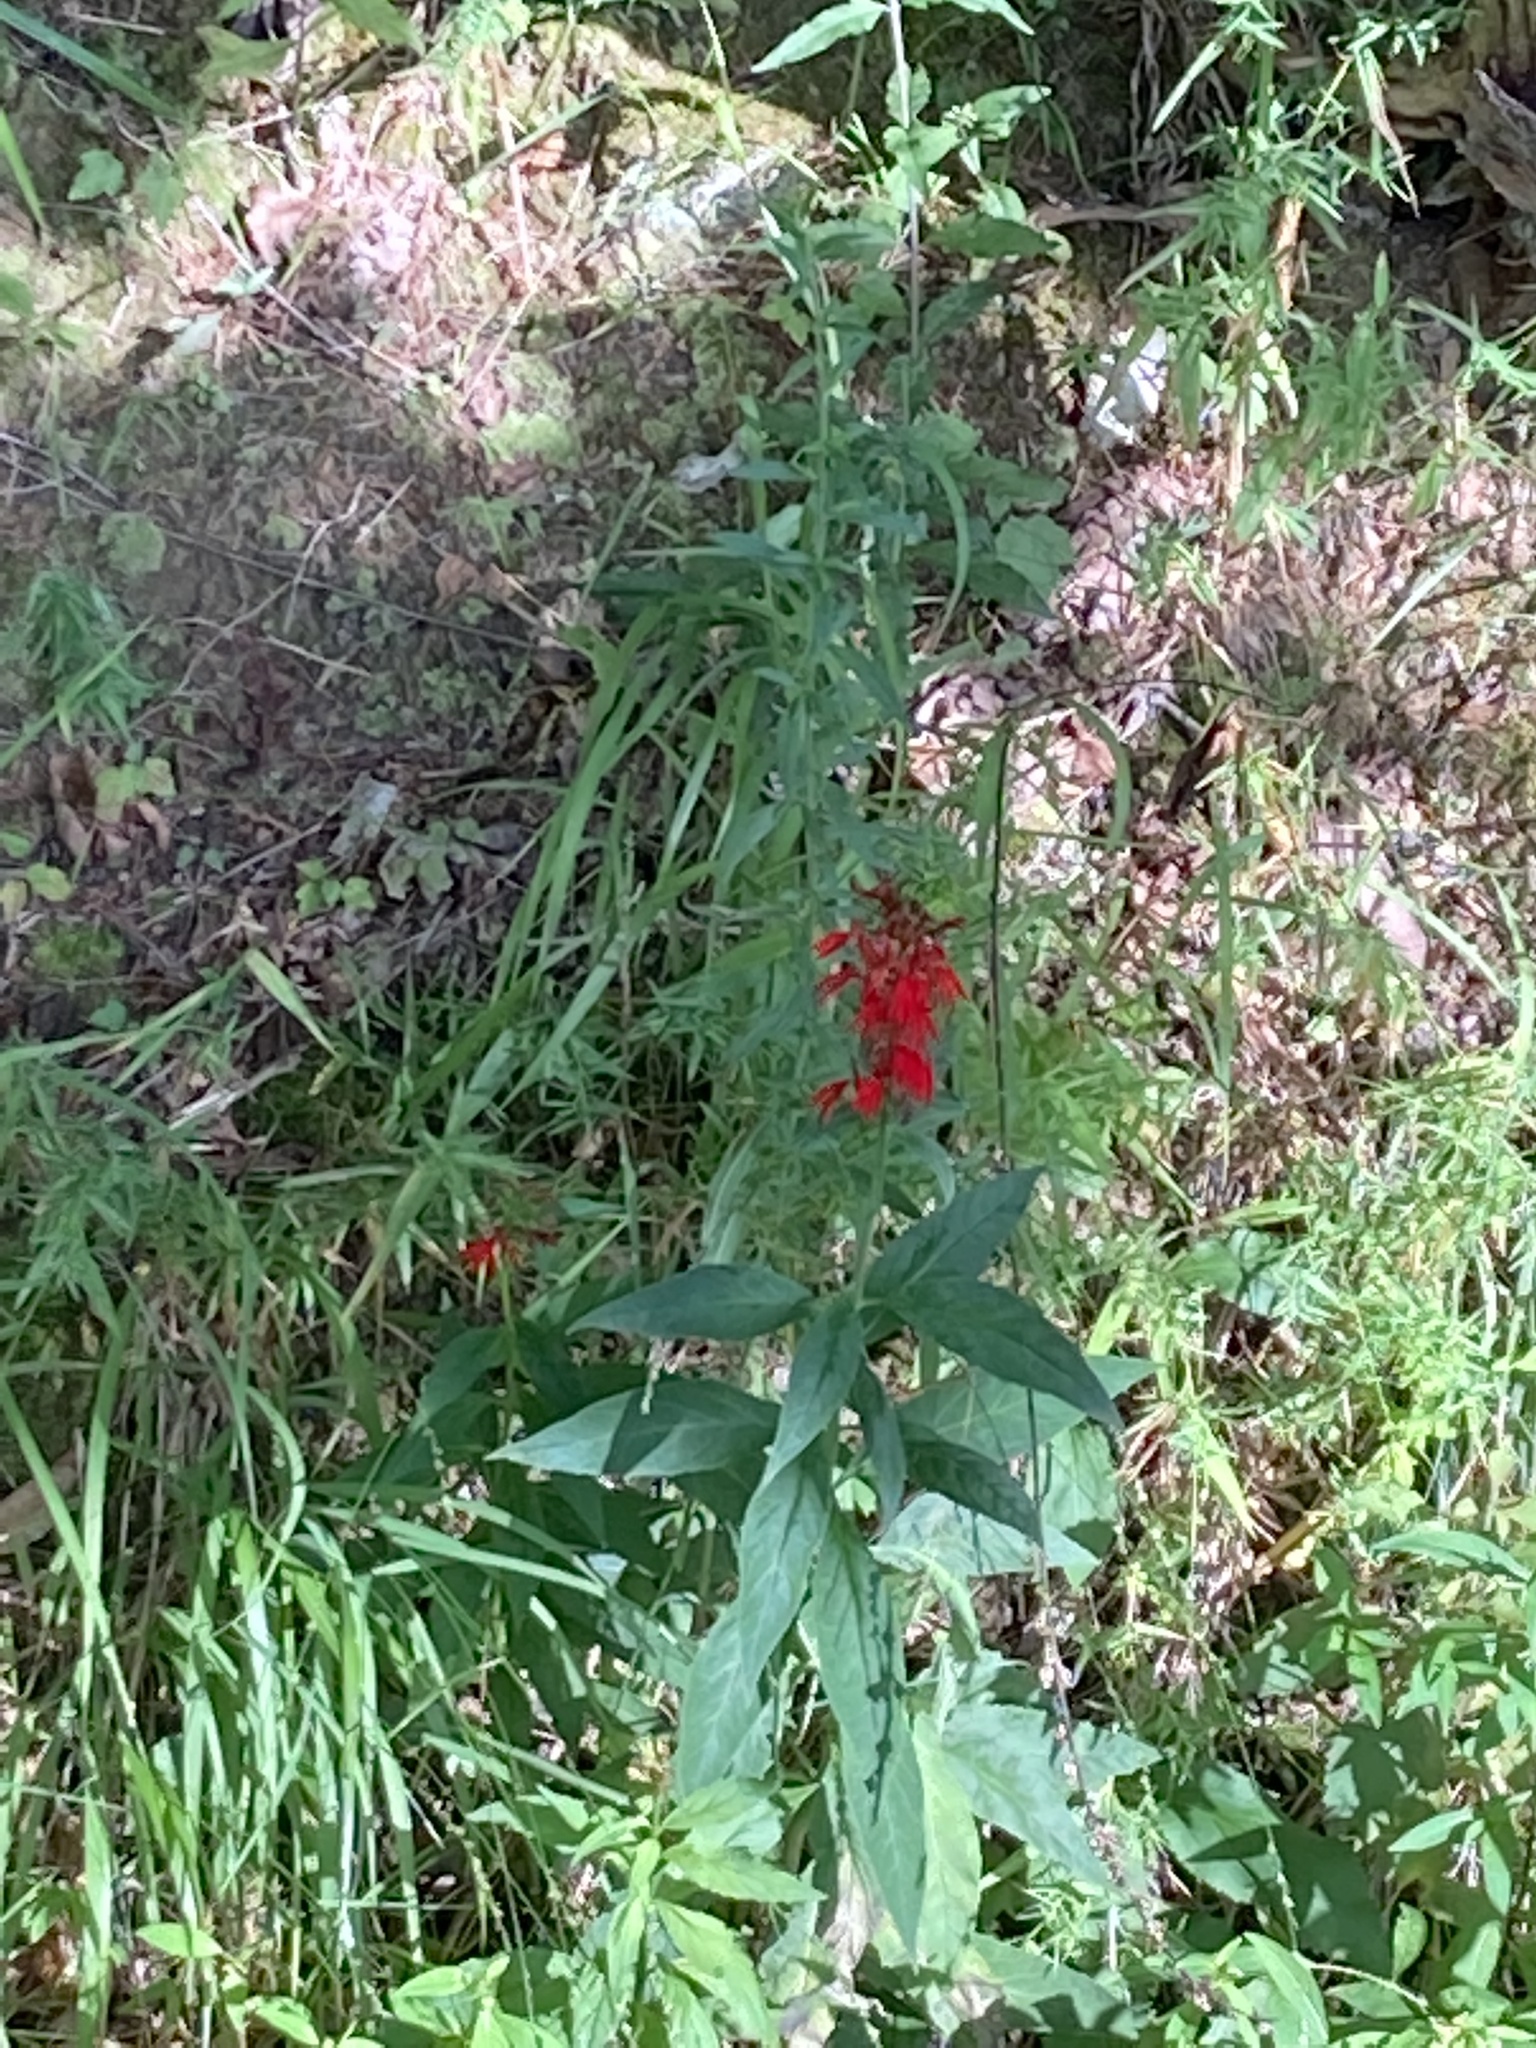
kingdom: Plantae
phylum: Tracheophyta
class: Magnoliopsida
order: Asterales
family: Campanulaceae
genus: Lobelia
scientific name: Lobelia cardinalis
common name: Cardinal flower
